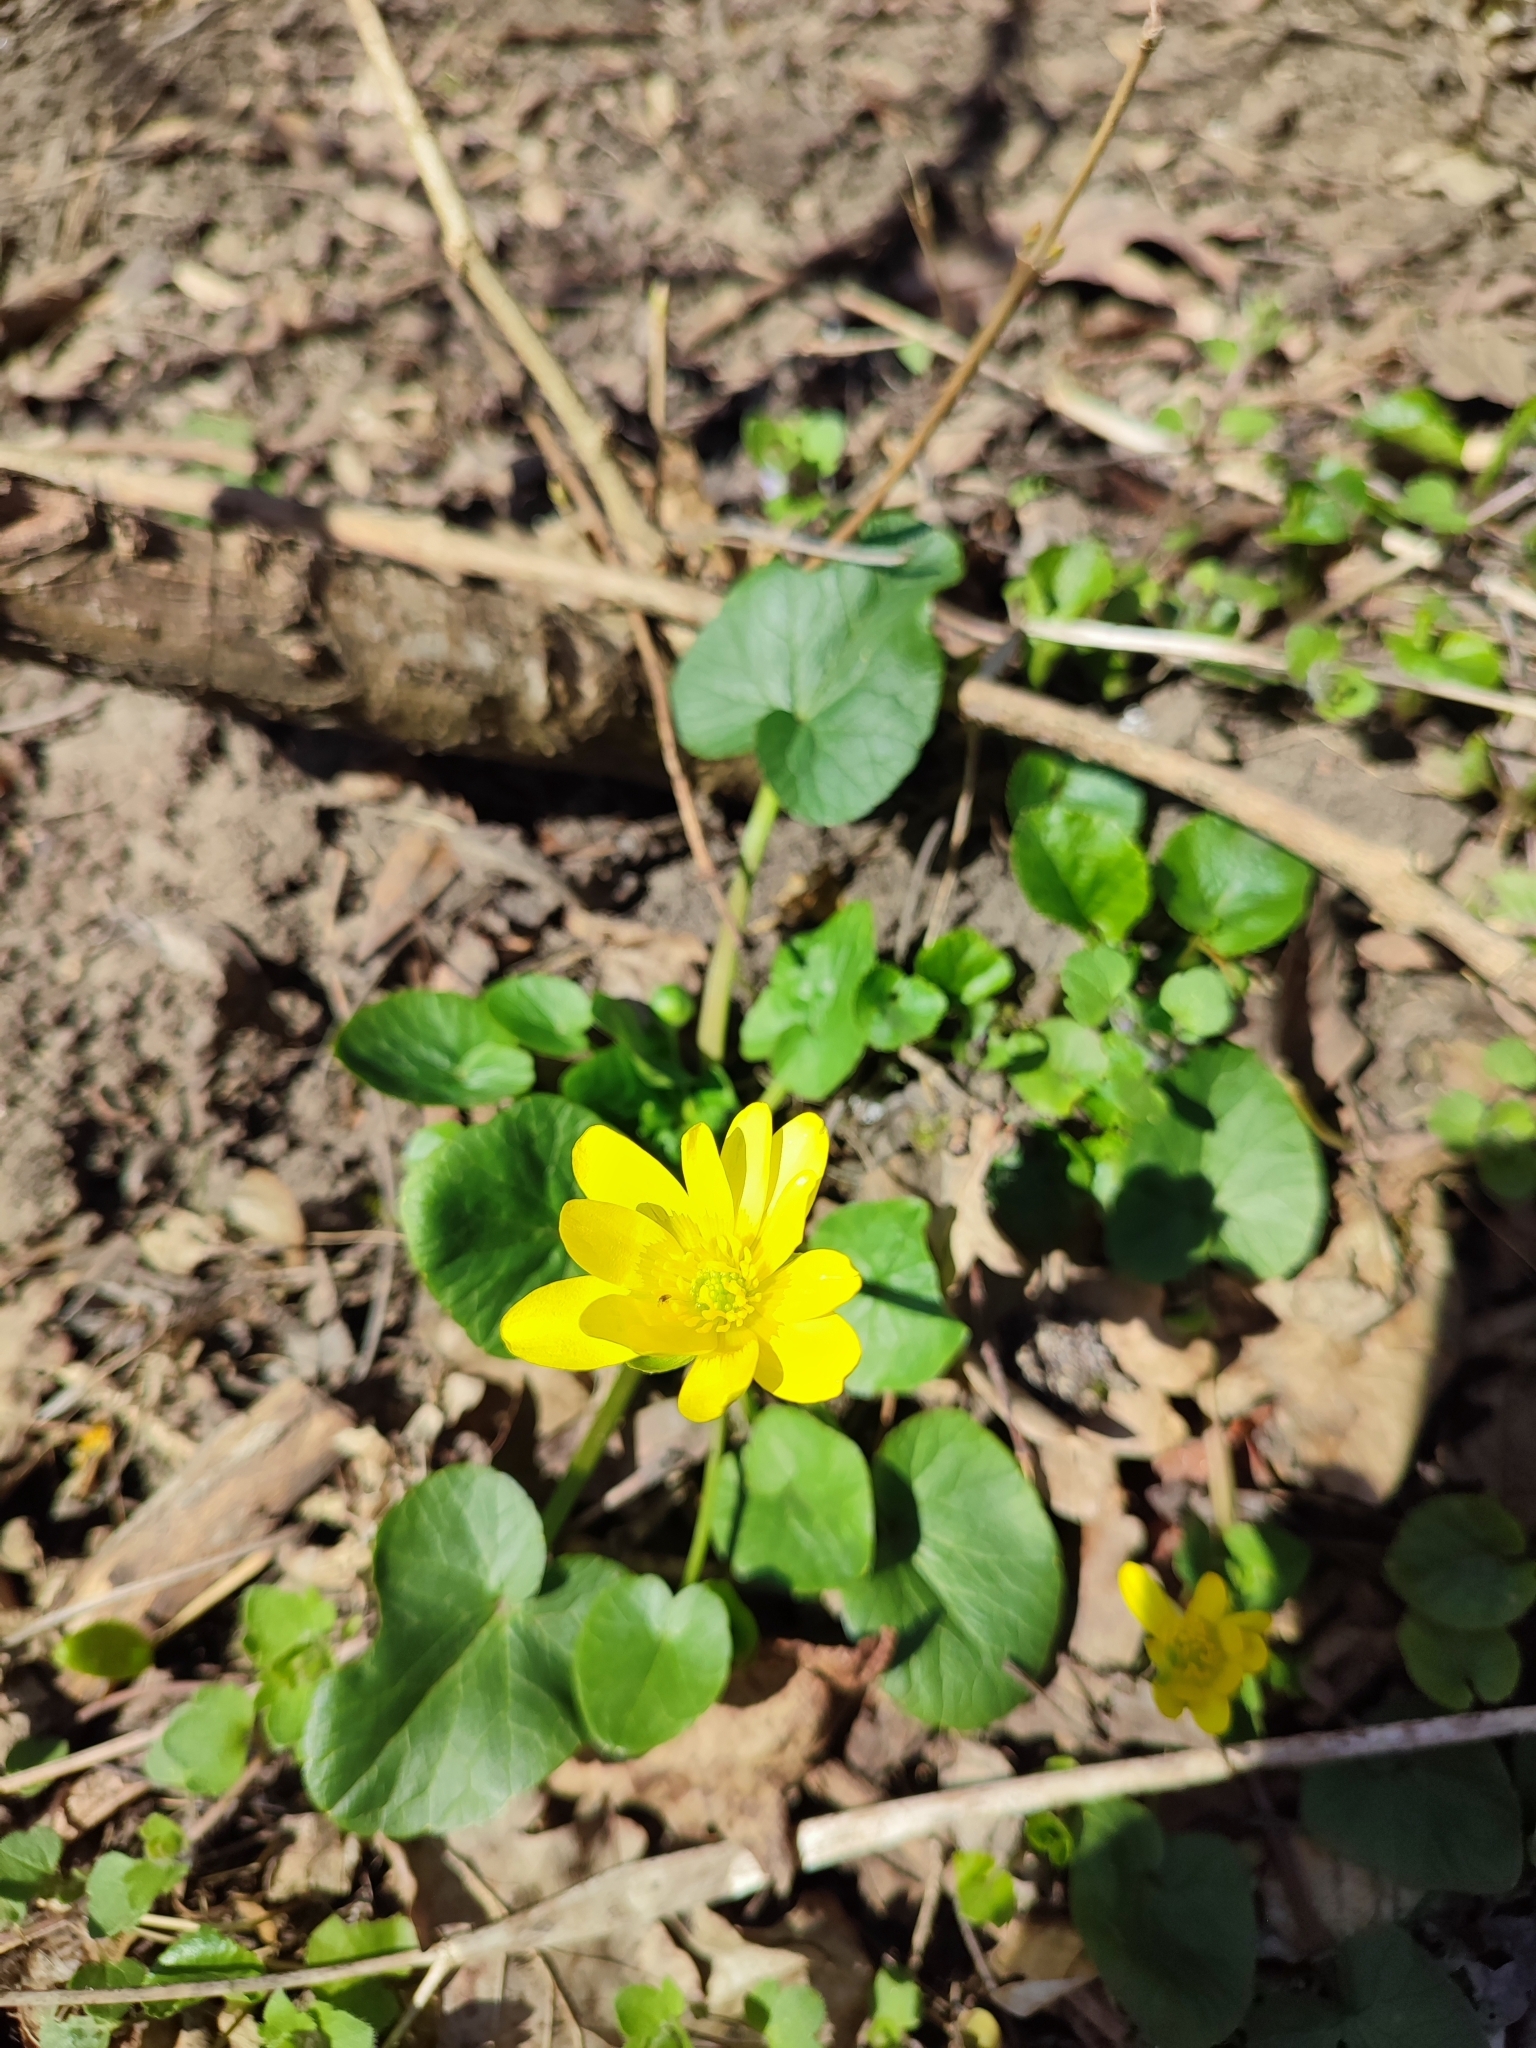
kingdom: Plantae
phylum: Tracheophyta
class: Magnoliopsida
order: Ranunculales
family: Ranunculaceae
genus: Ficaria
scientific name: Ficaria verna
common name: Lesser celandine
